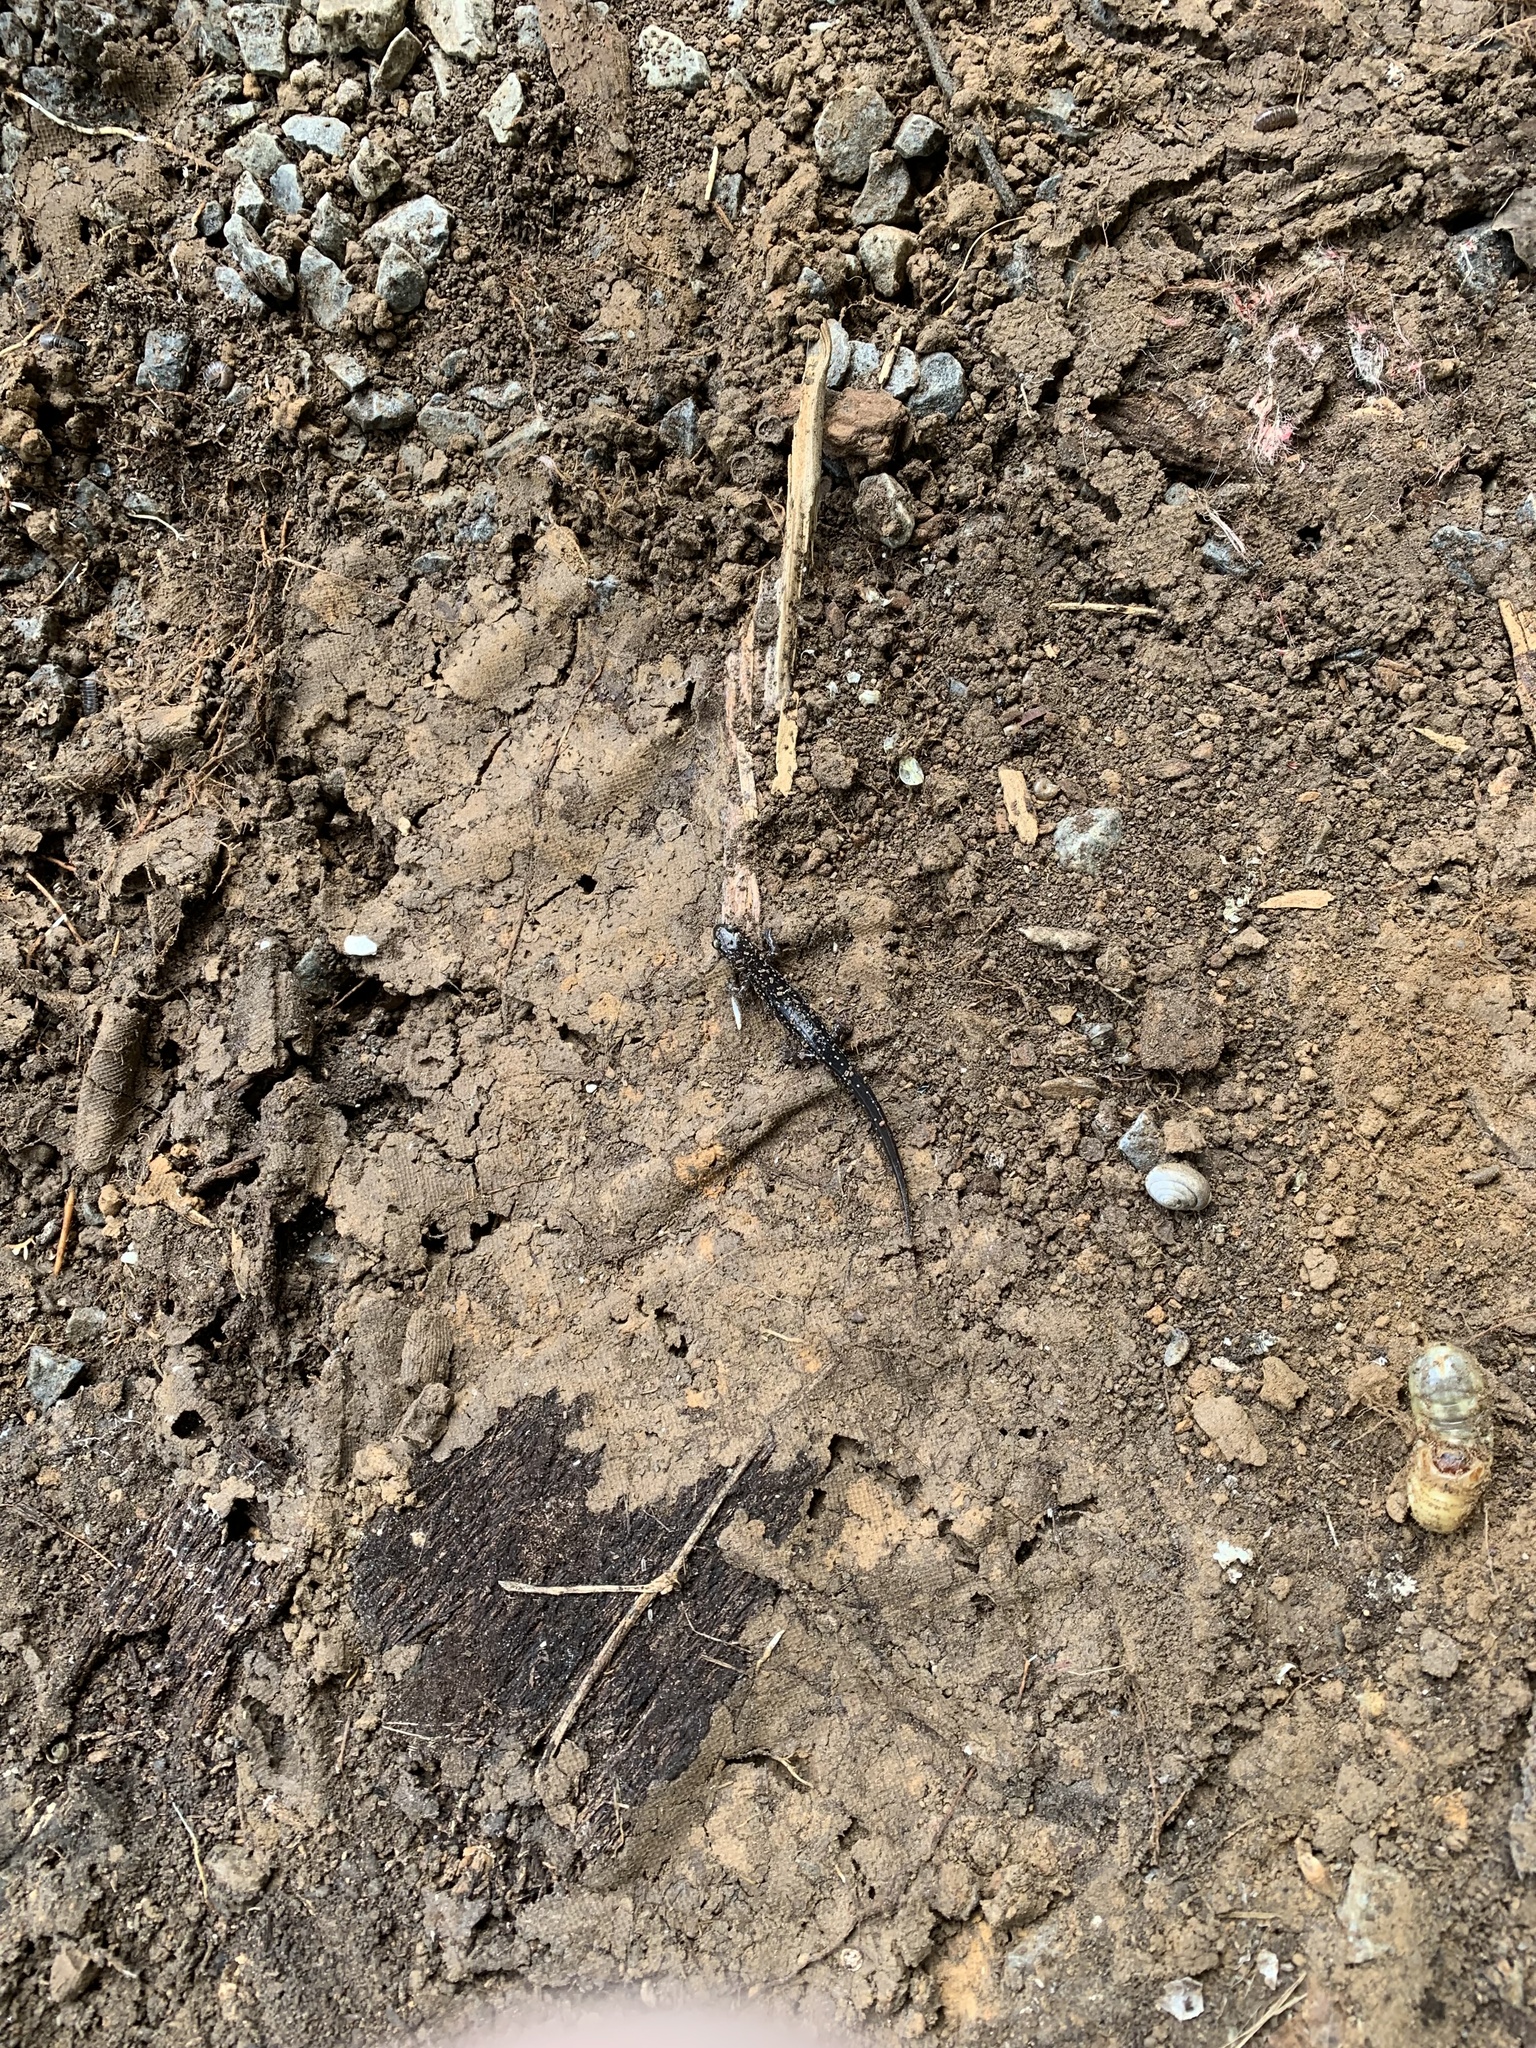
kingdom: Animalia
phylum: Chordata
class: Amphibia
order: Caudata
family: Plethodontidae
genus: Plethodon
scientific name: Plethodon glutinosus
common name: Northern slimy salamander
